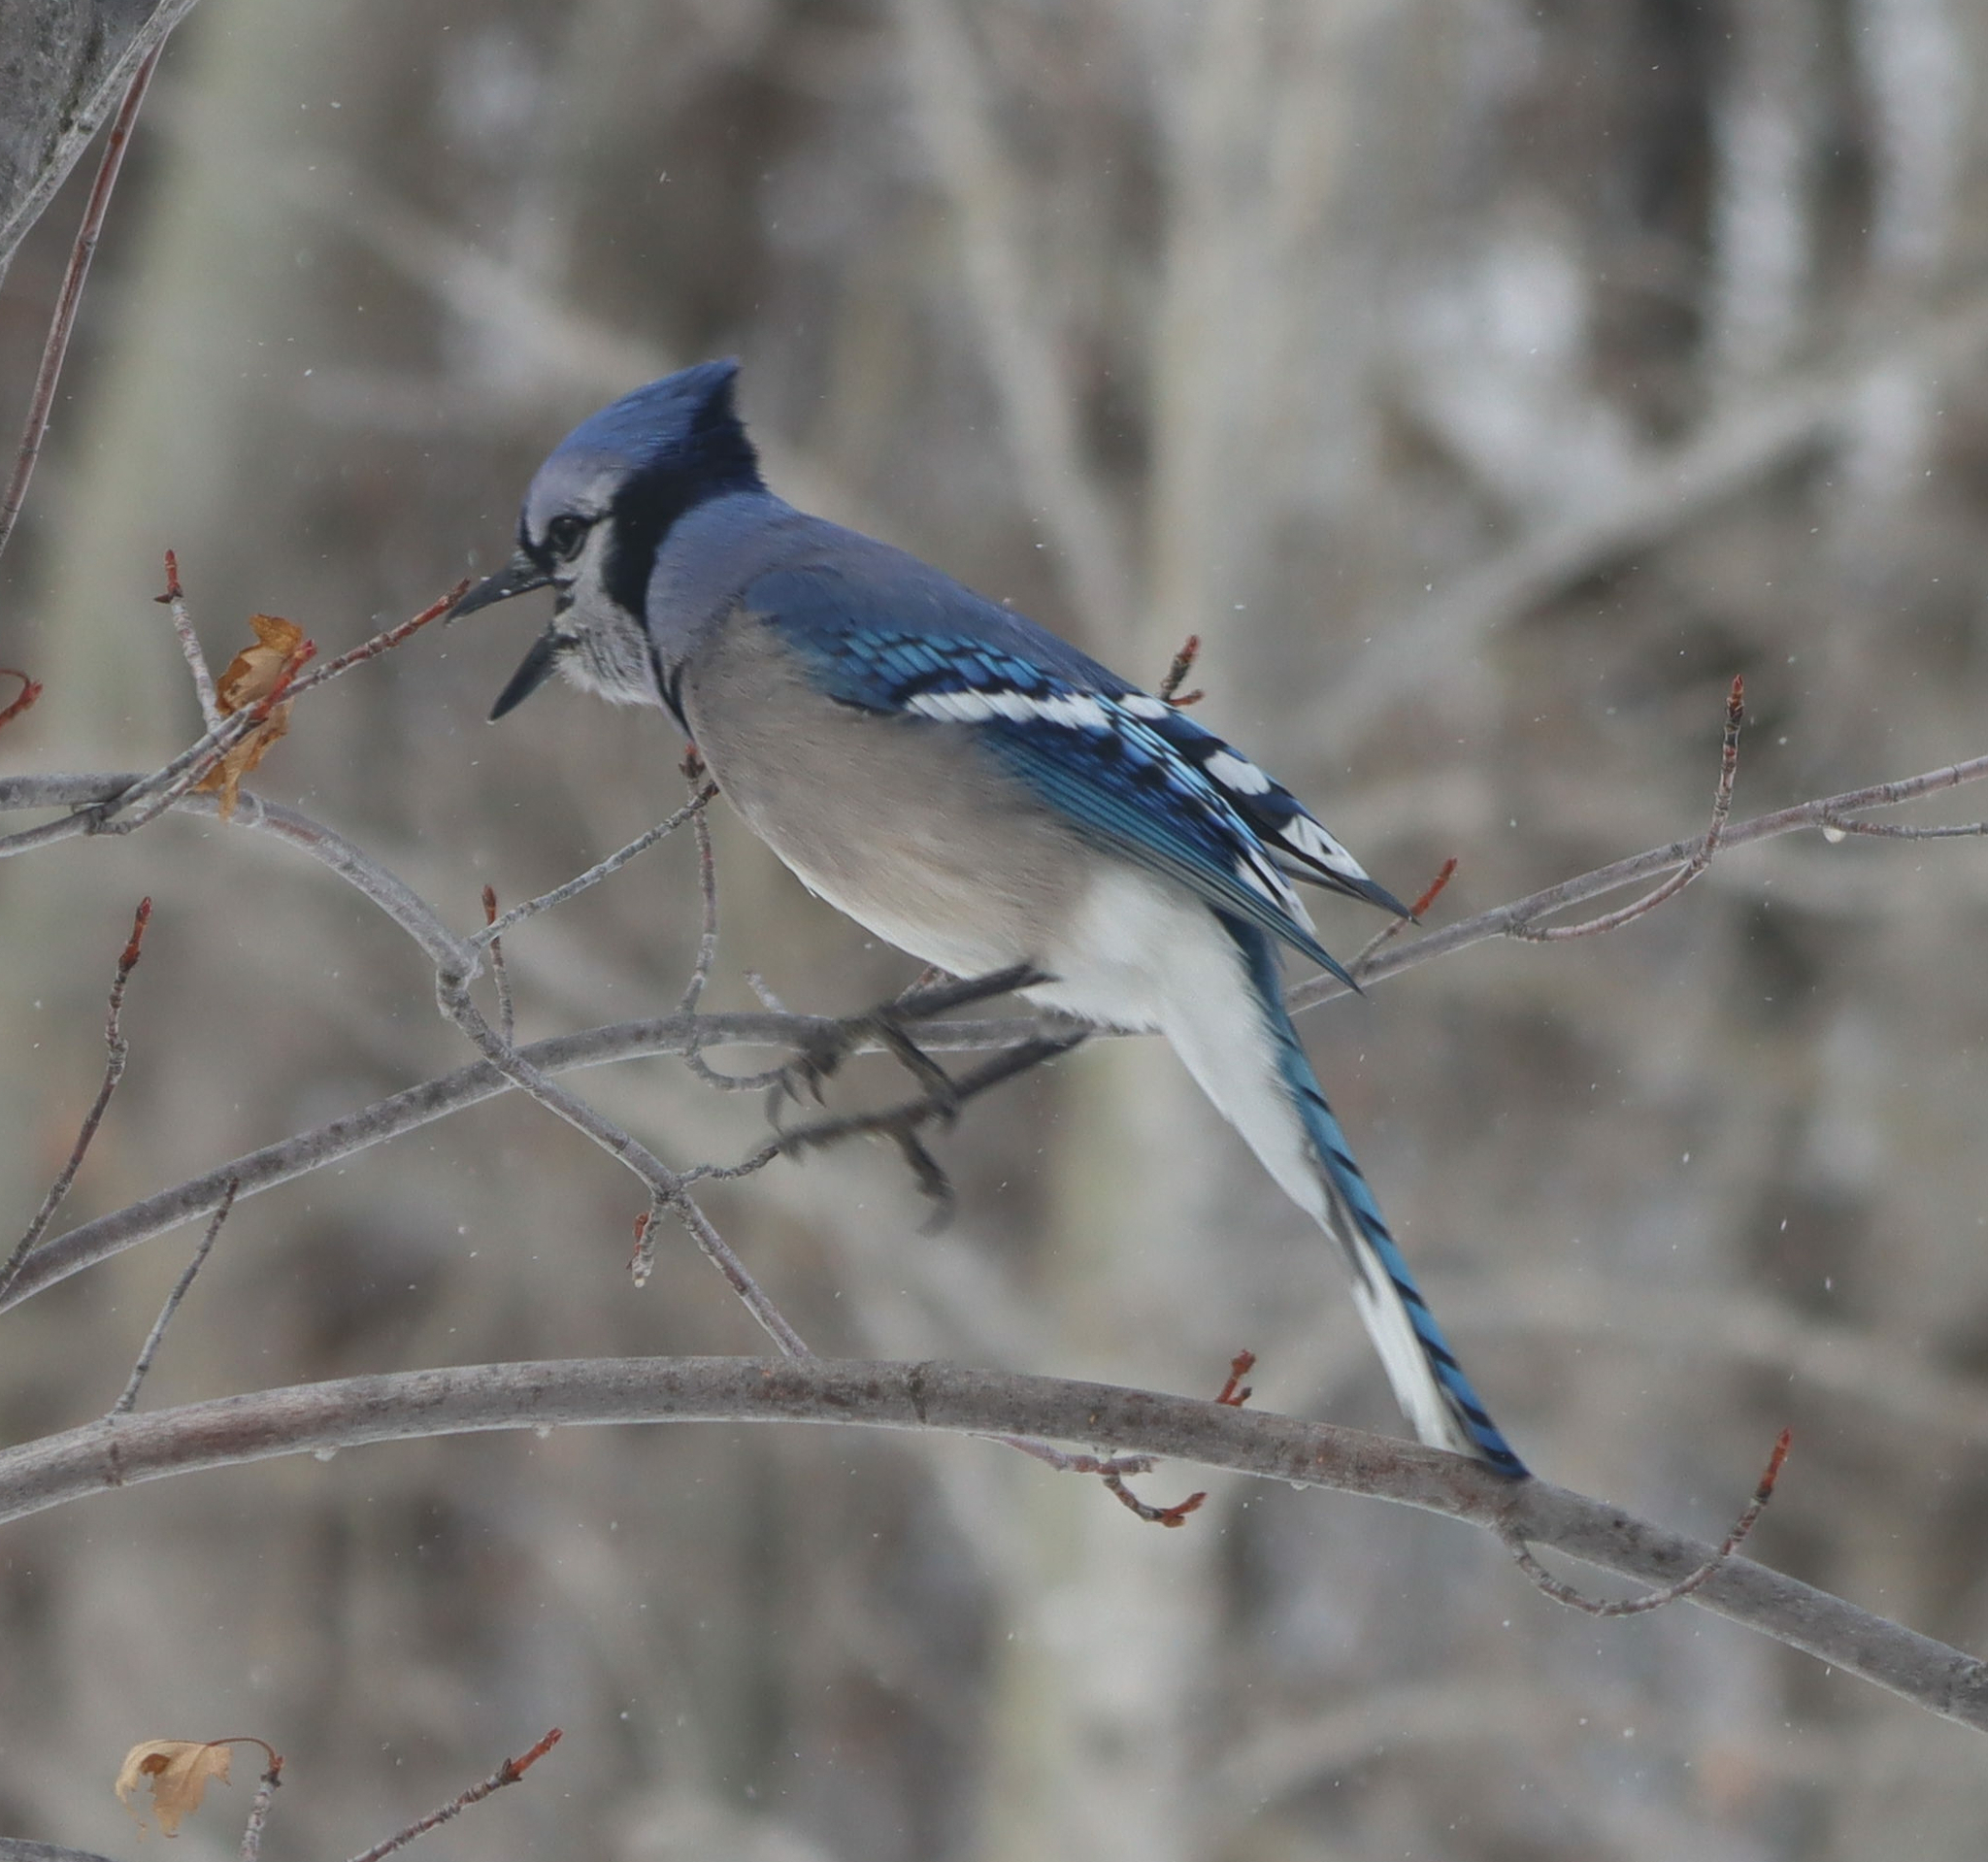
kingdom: Animalia
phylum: Chordata
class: Aves
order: Passeriformes
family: Corvidae
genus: Cyanocitta
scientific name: Cyanocitta cristata
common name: Blue jay
